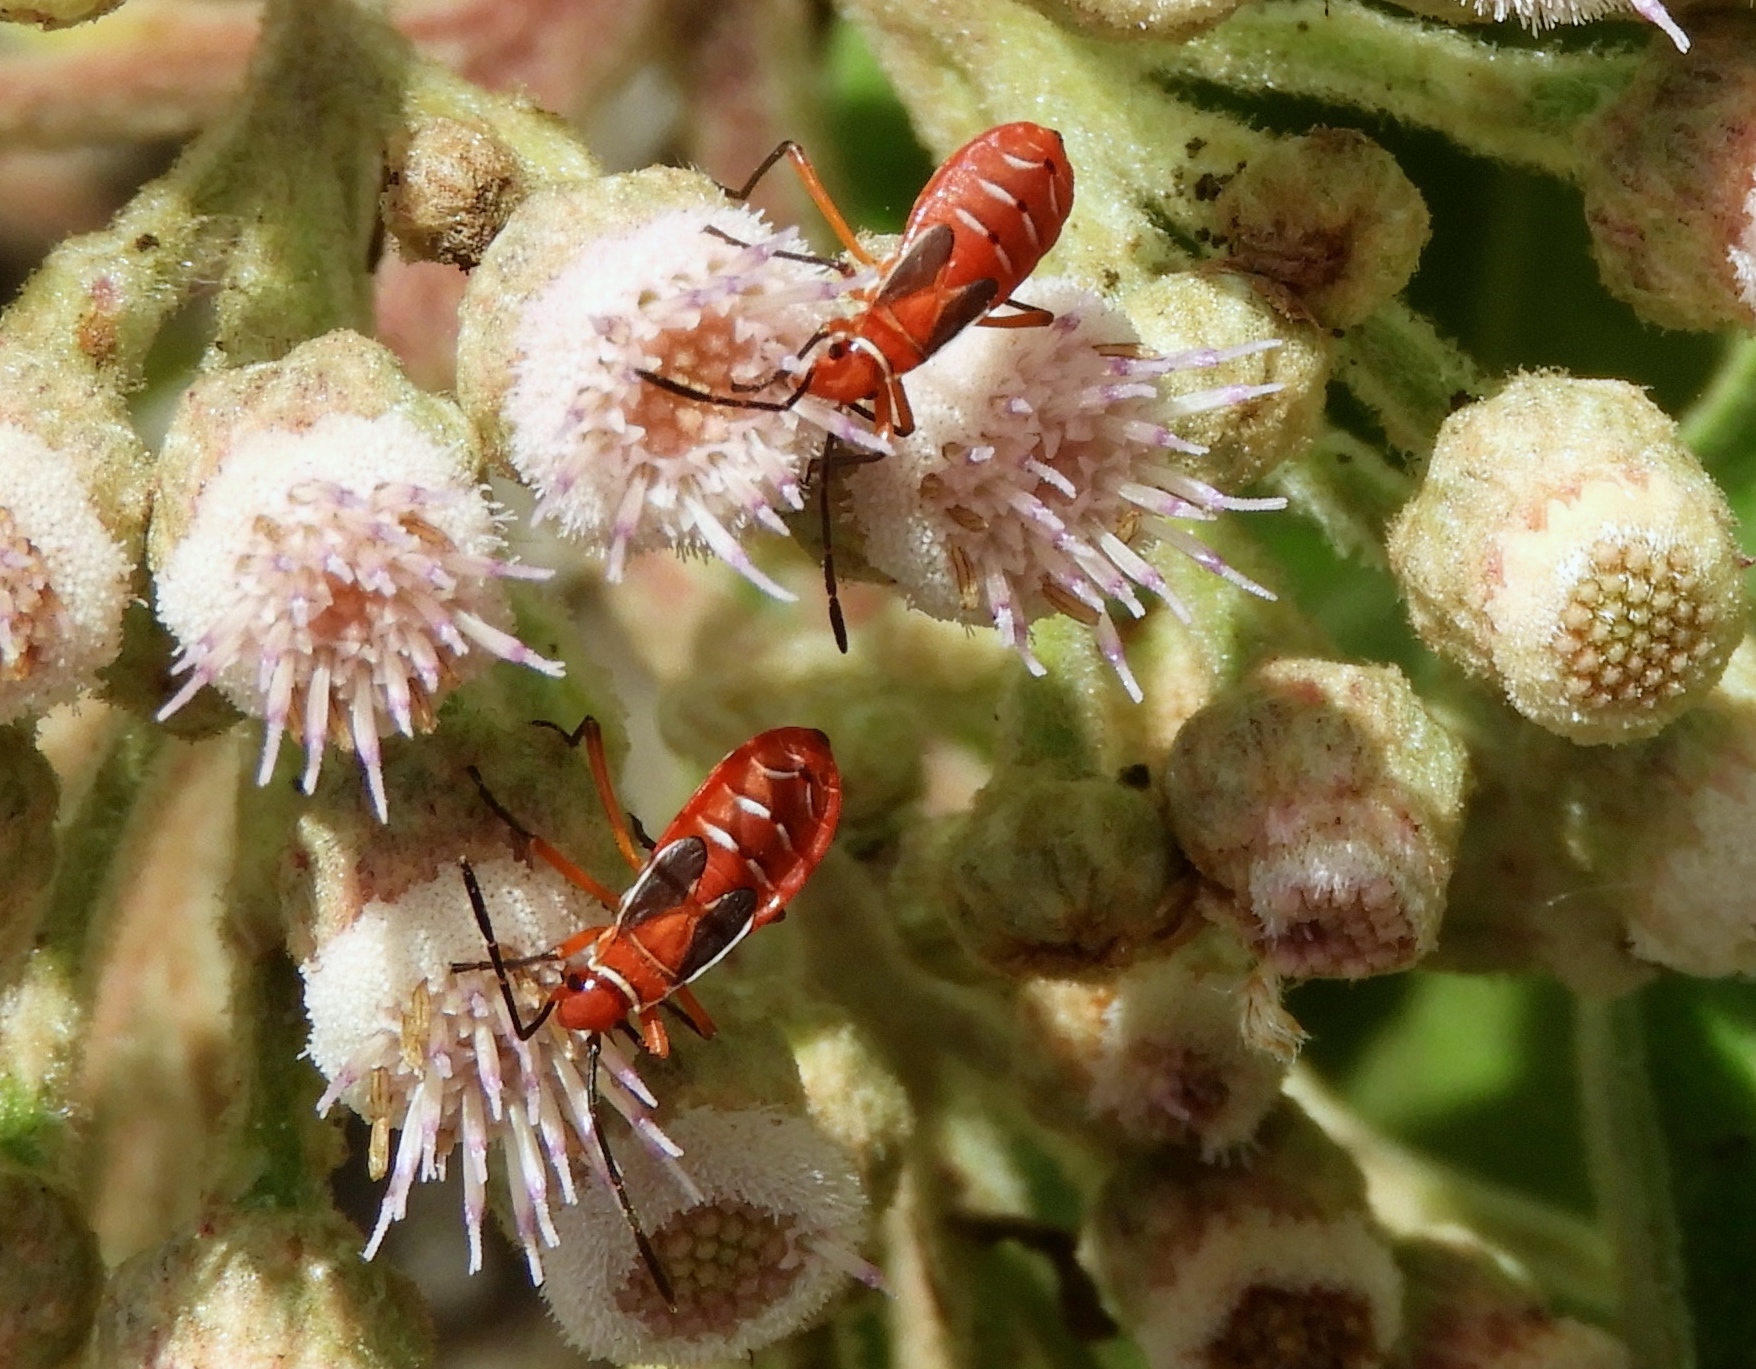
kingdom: Animalia
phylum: Arthropoda
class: Insecta
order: Hemiptera
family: Pyrrhocoridae
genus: Dysdercus
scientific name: Dysdercus
